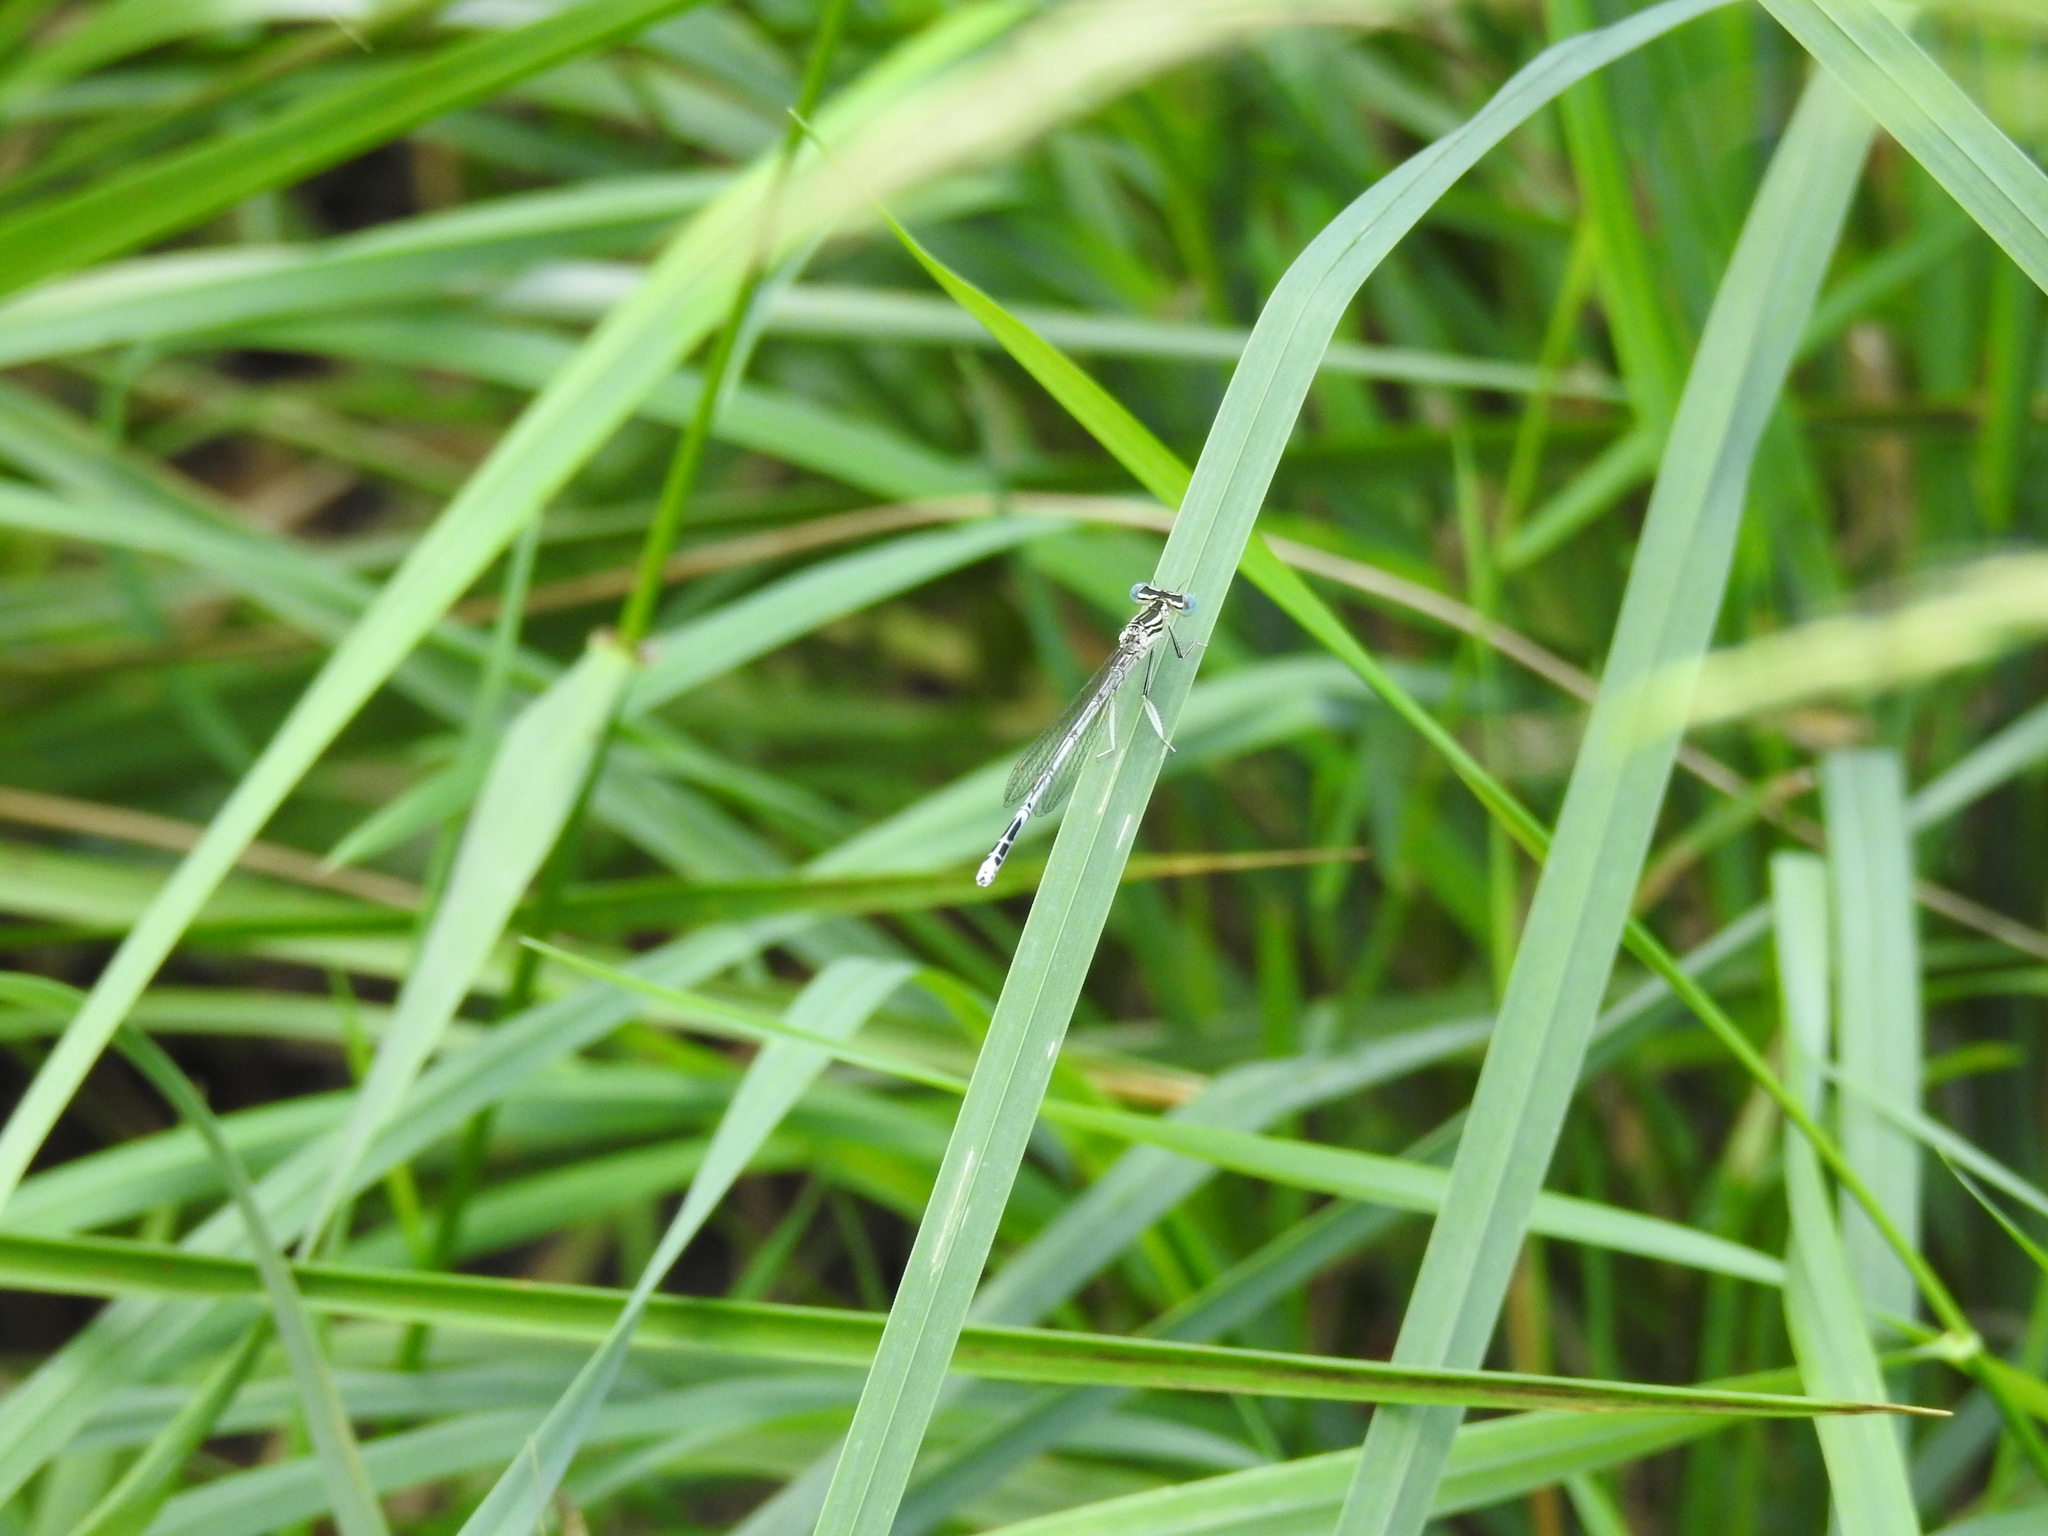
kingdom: Animalia
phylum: Arthropoda
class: Insecta
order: Odonata
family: Platycnemididae
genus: Platycnemis
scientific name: Platycnemis pennipes
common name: White-legged damselfly
